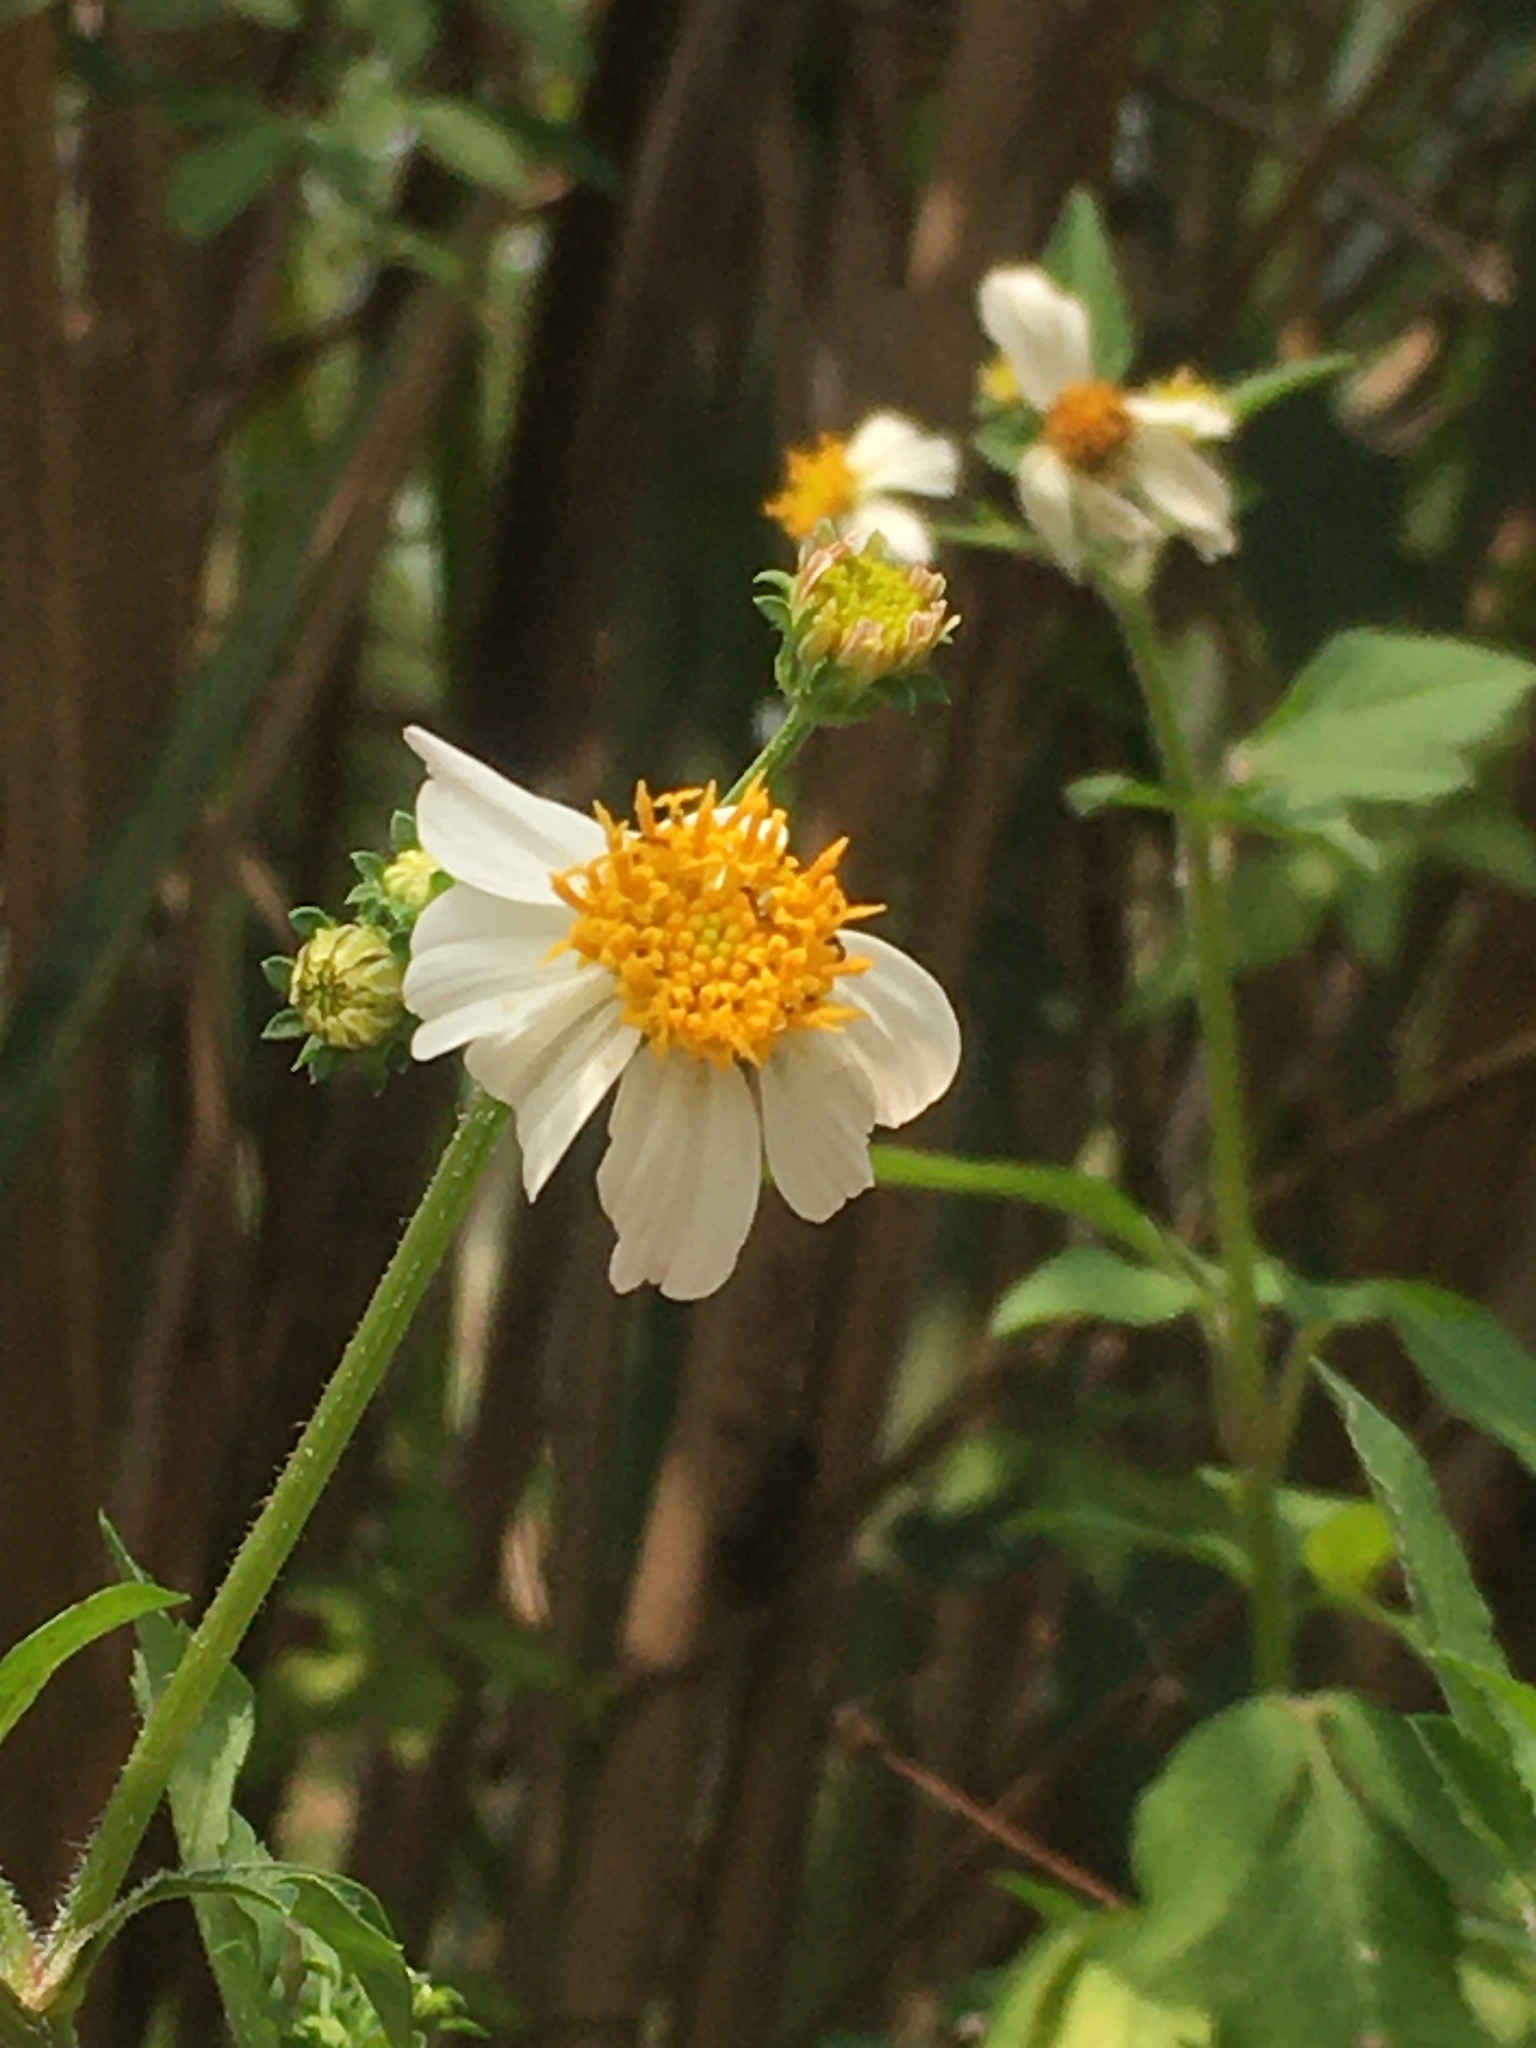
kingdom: Plantae
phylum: Tracheophyta
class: Magnoliopsida
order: Asterales
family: Asteraceae
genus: Bidens
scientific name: Bidens alba
